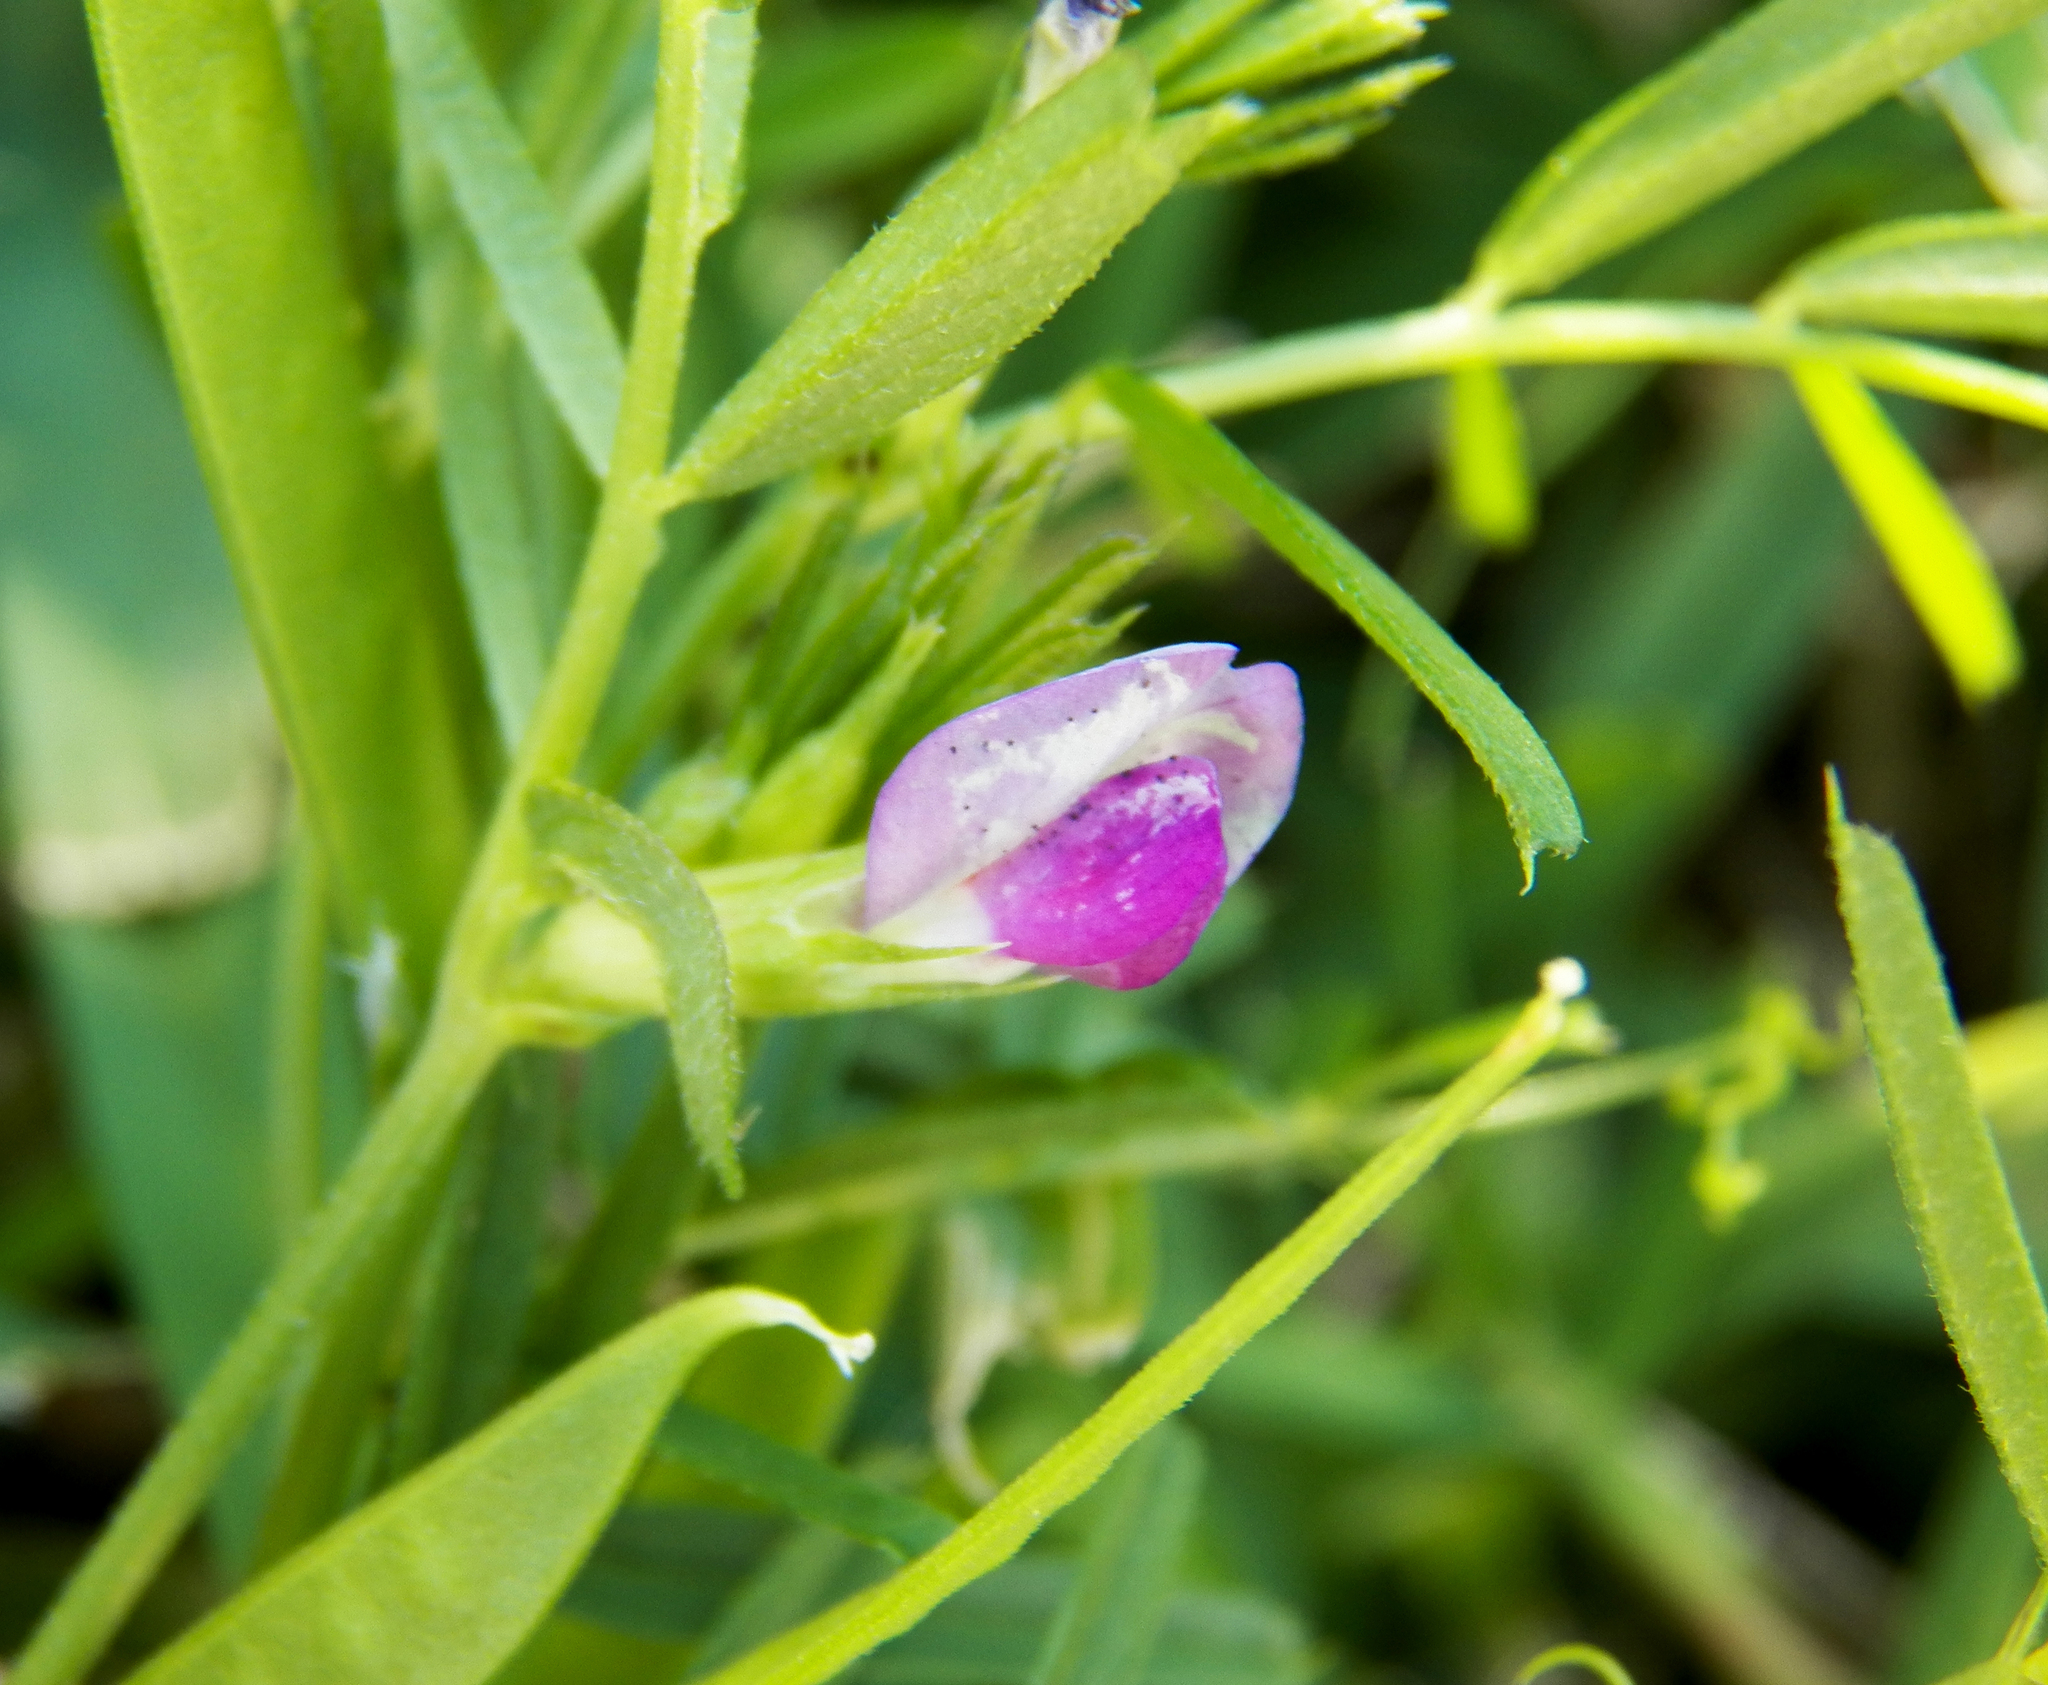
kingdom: Plantae
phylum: Tracheophyta
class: Magnoliopsida
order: Fabales
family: Fabaceae
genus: Vicia
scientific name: Vicia sativa
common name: Garden vetch
